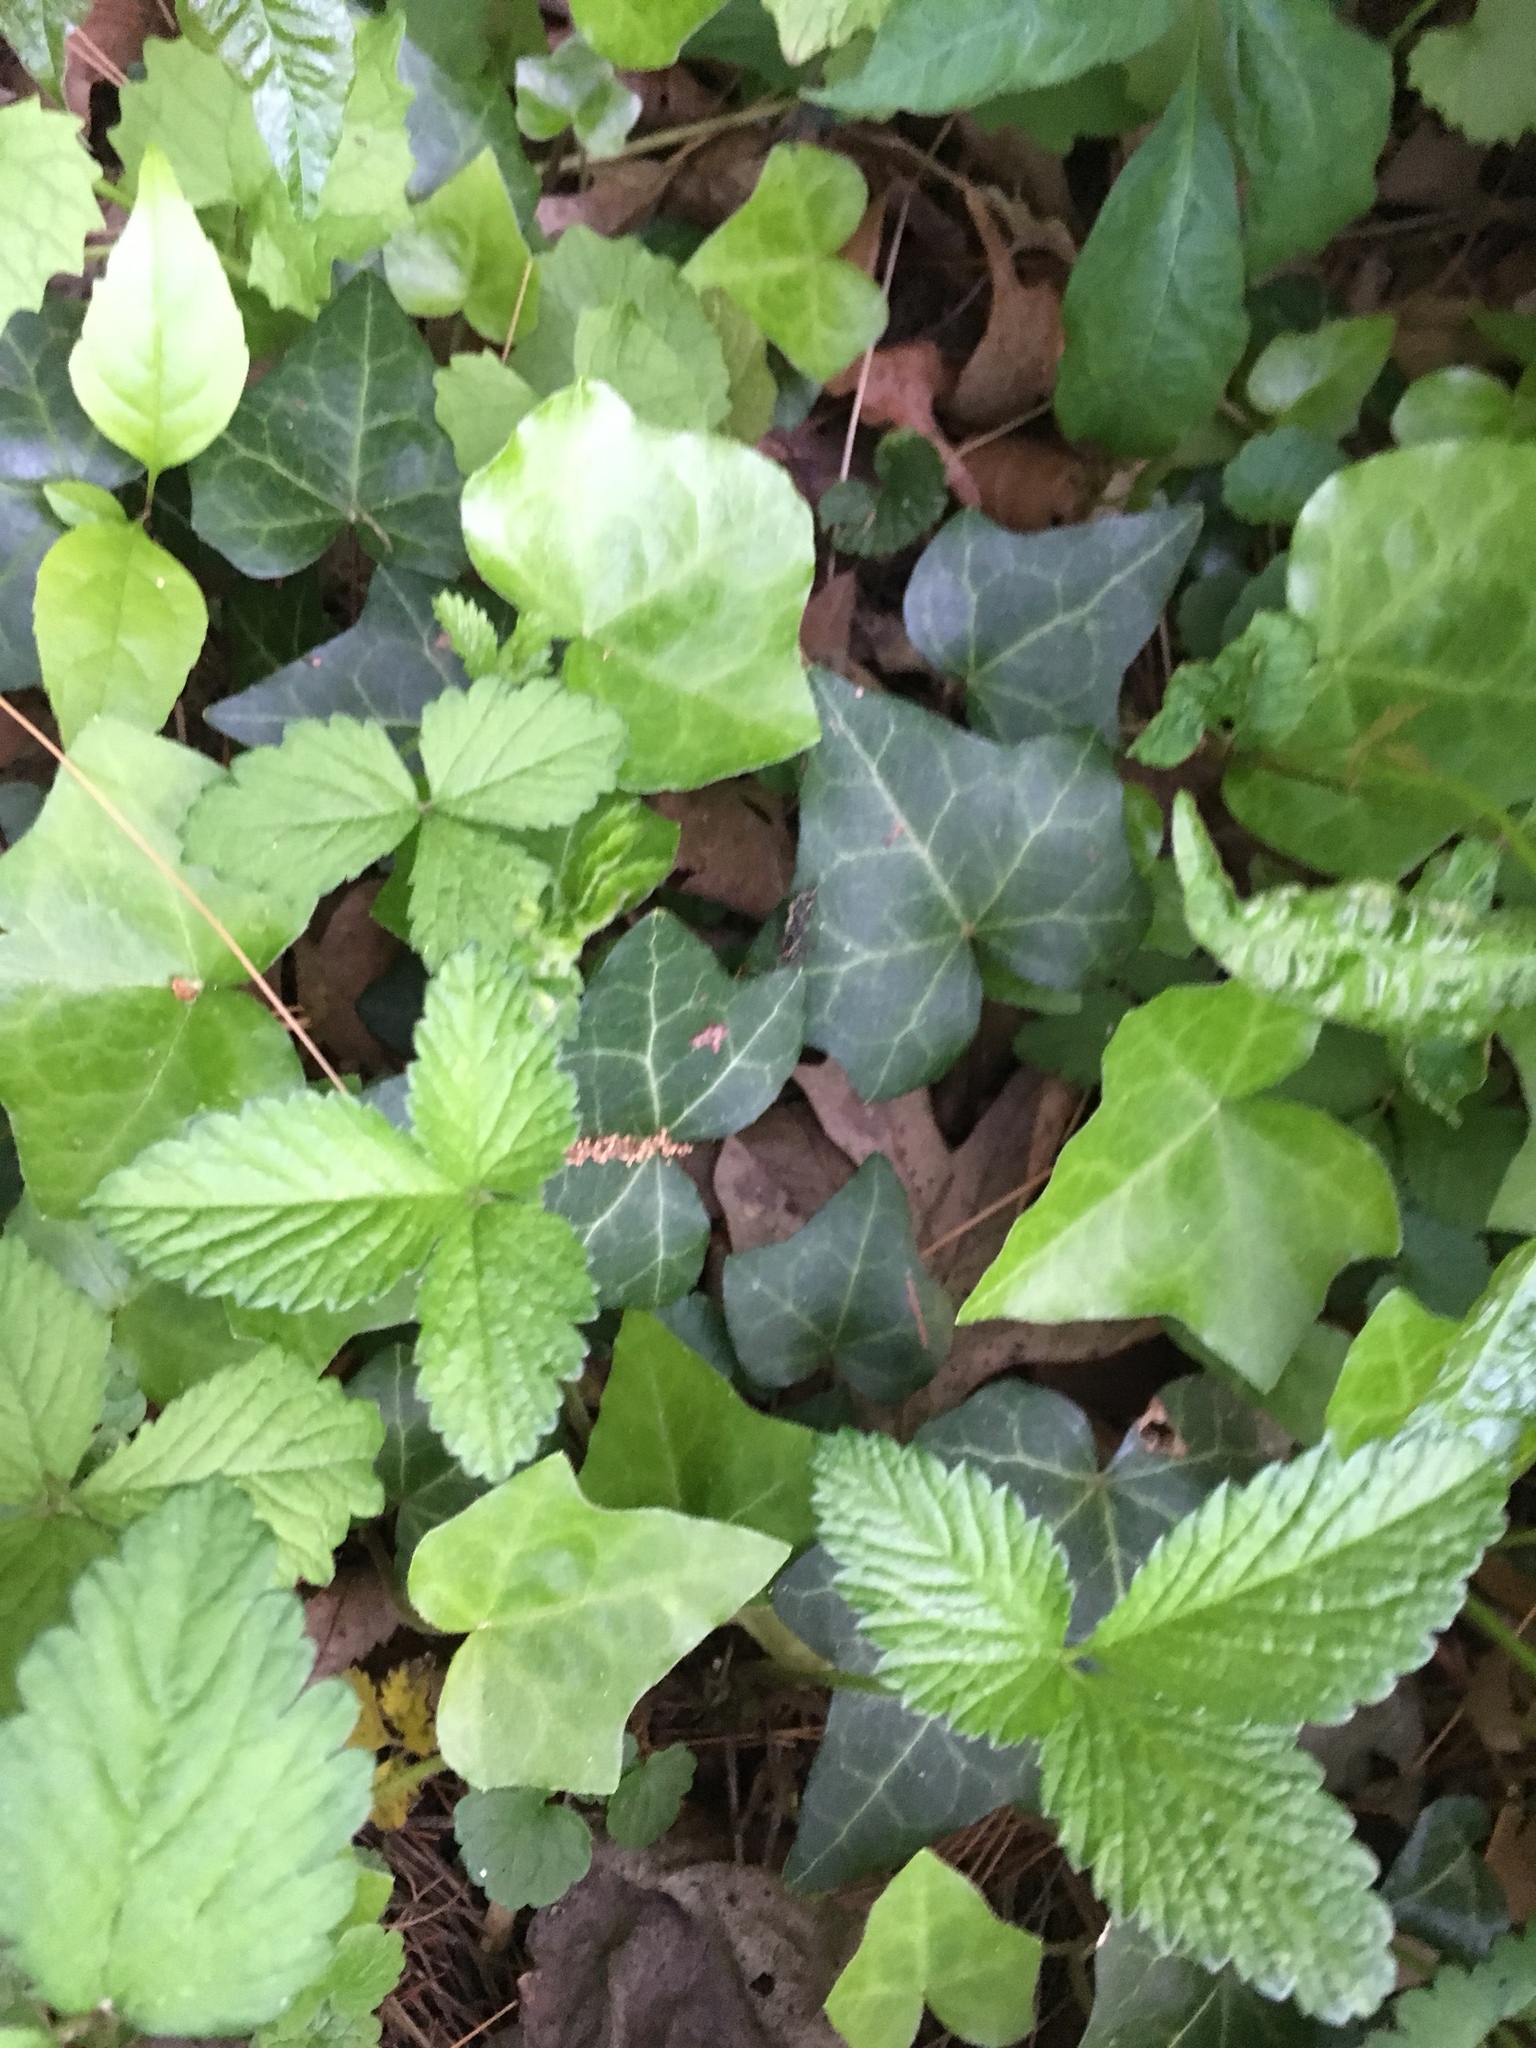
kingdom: Plantae
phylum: Tracheophyta
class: Magnoliopsida
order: Apiales
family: Araliaceae
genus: Hedera
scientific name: Hedera helix
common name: Ivy
